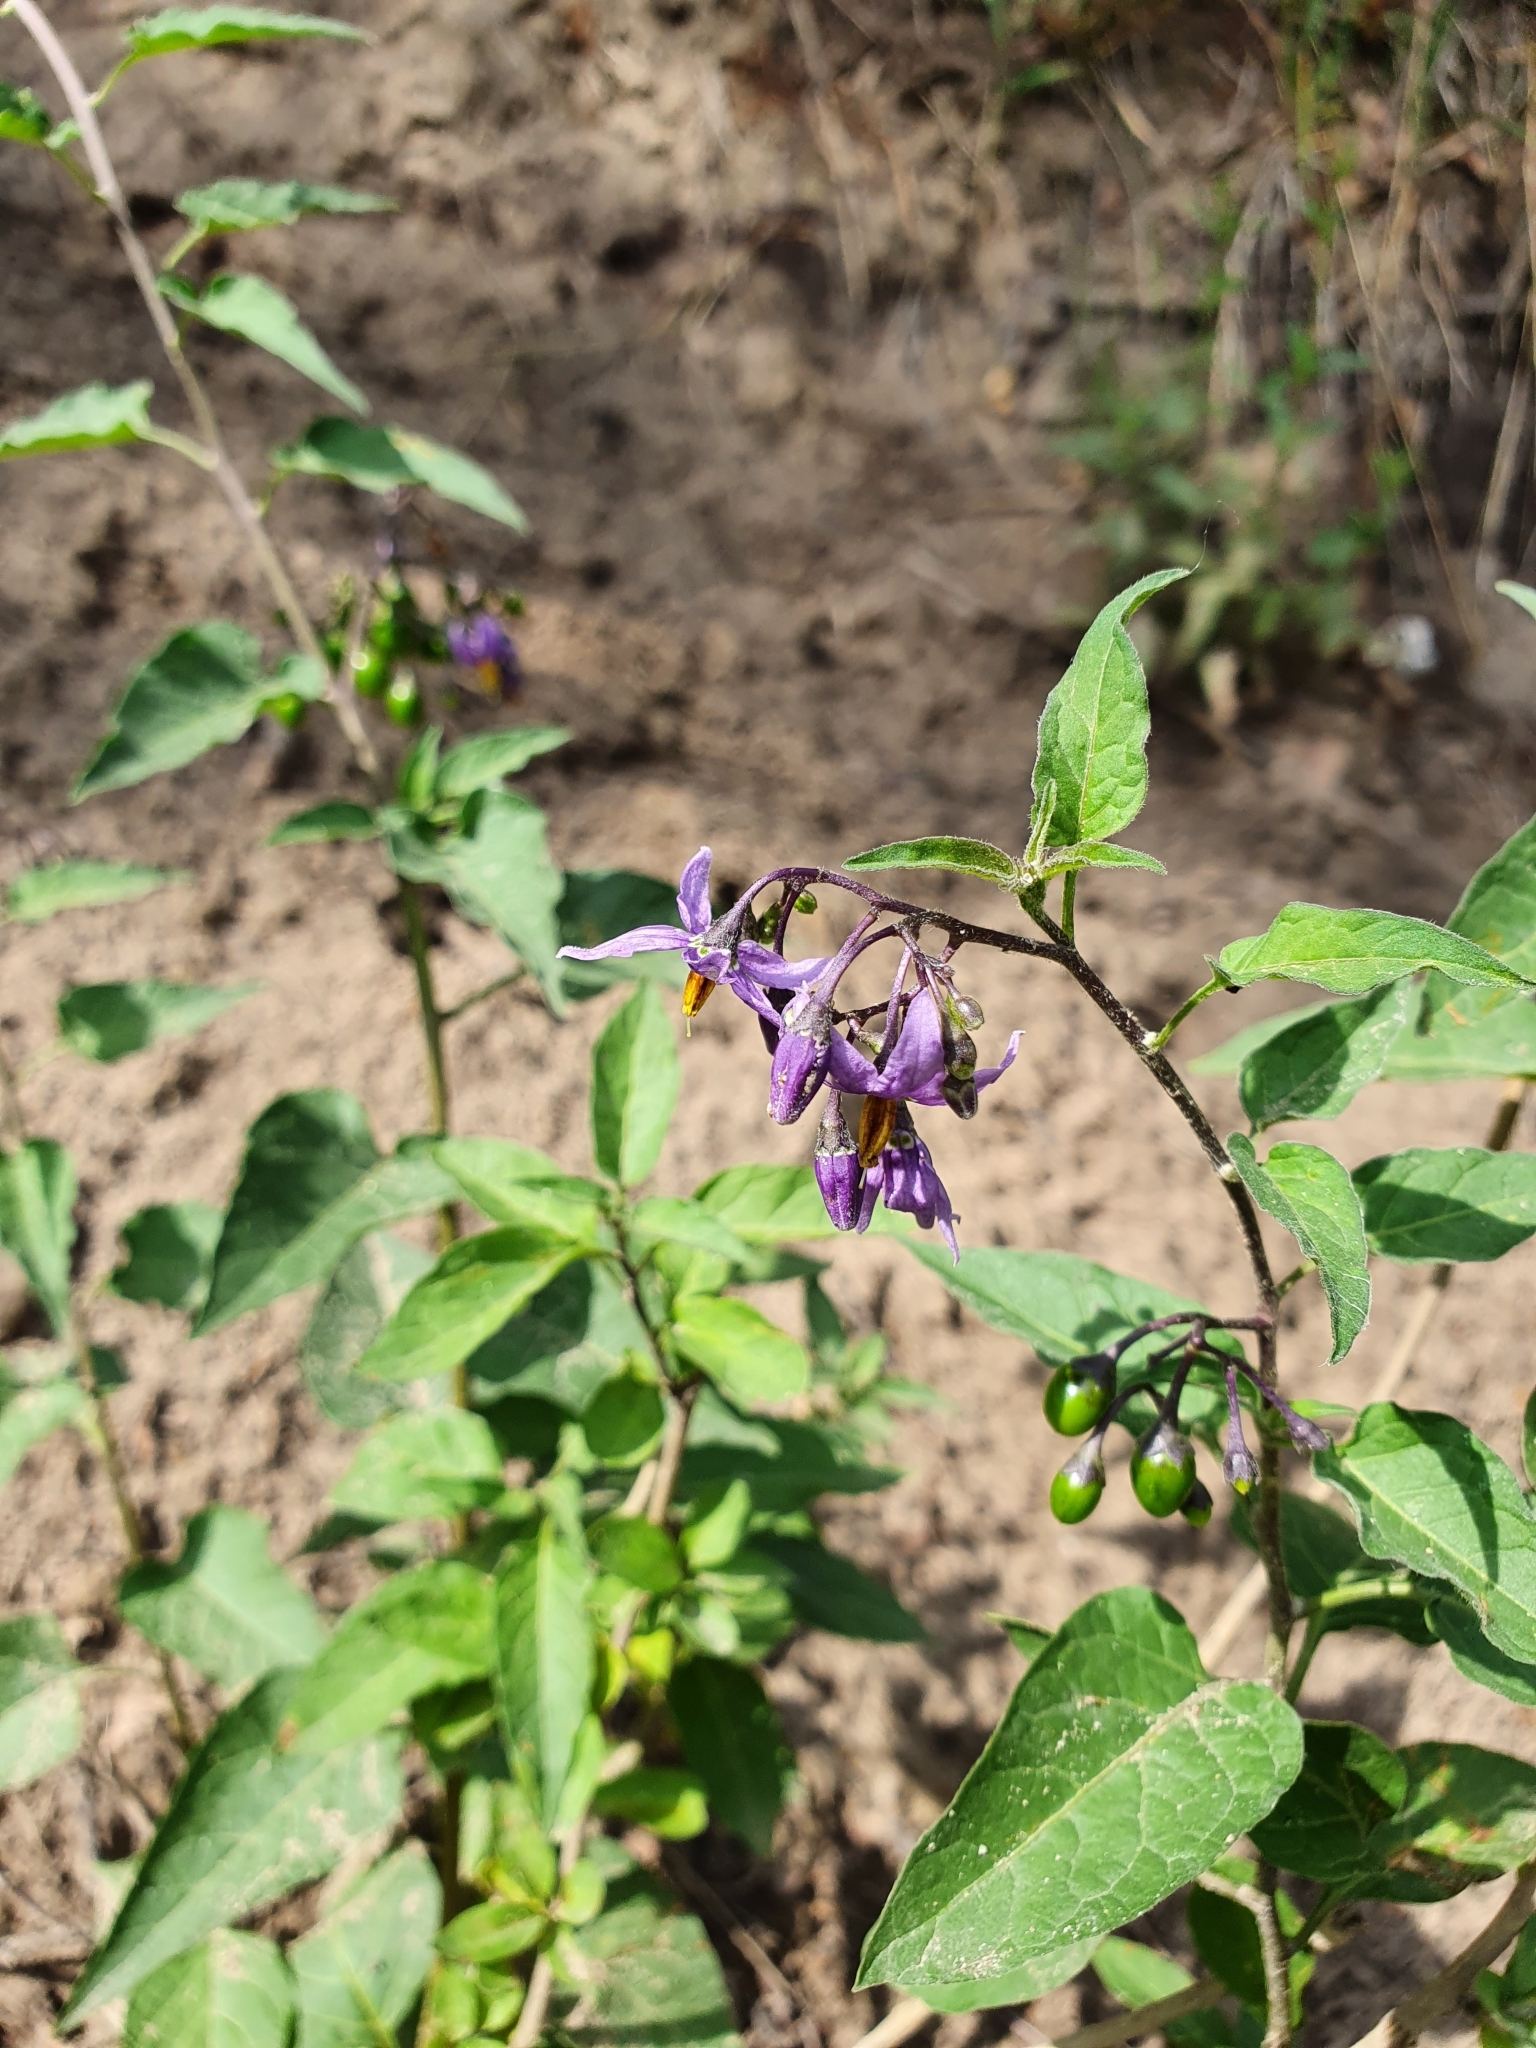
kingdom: Plantae
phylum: Tracheophyta
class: Magnoliopsida
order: Solanales
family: Solanaceae
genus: Solanum
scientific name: Solanum dulcamara
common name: Climbing nightshade
